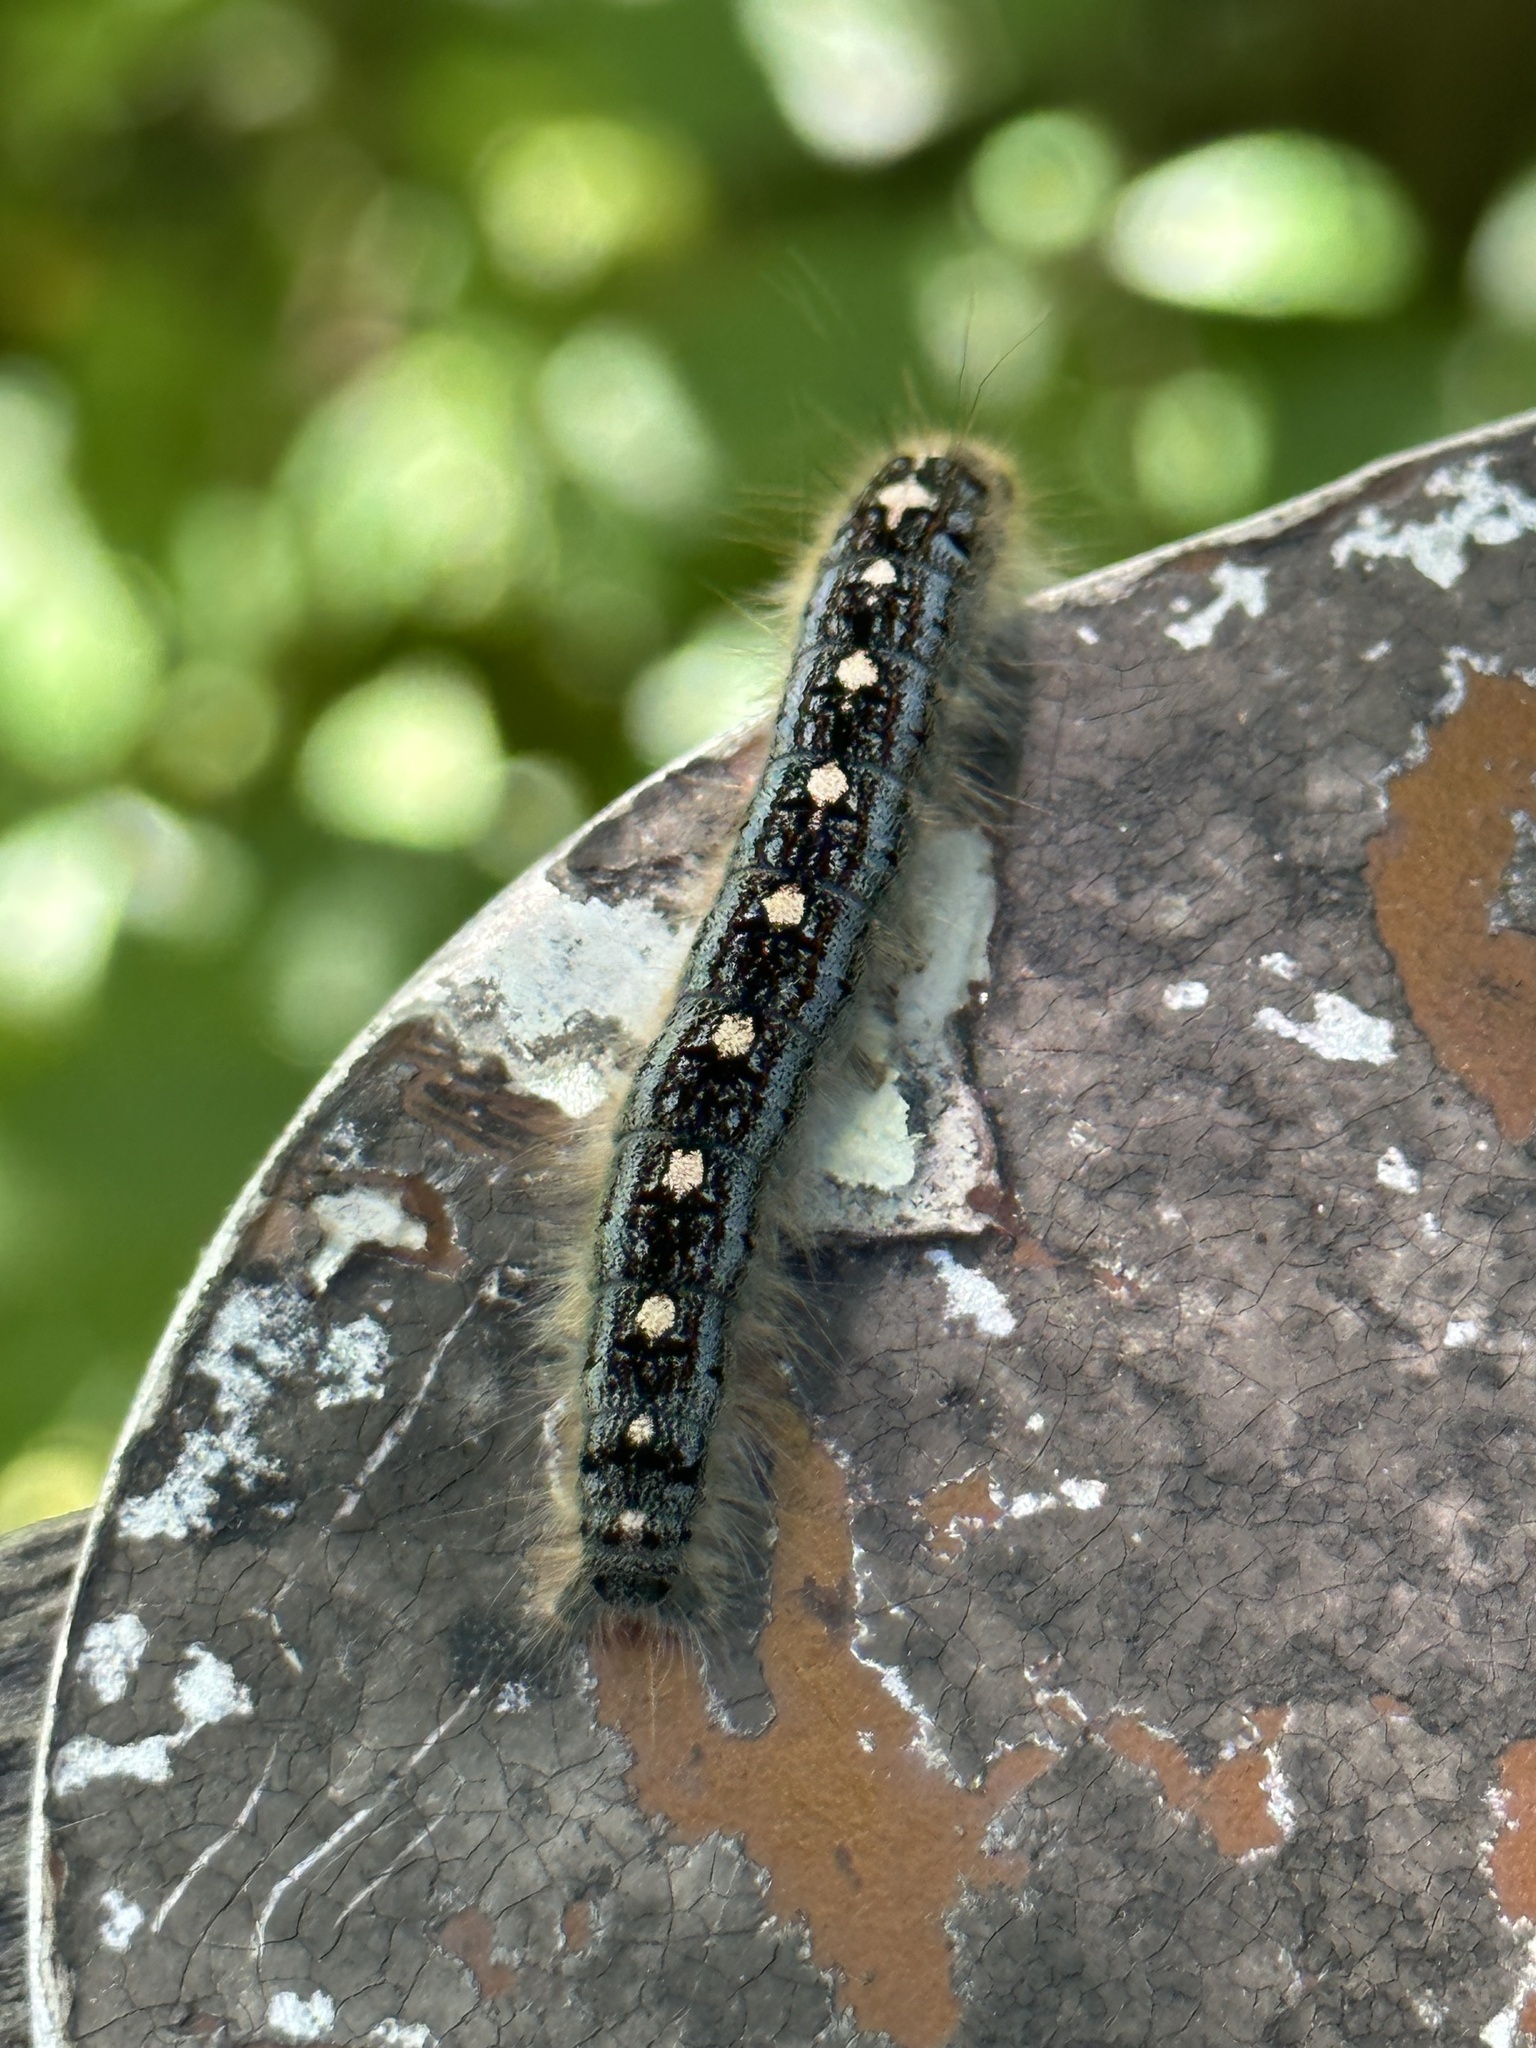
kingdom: Animalia
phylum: Arthropoda
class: Insecta
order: Lepidoptera
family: Lasiocampidae
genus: Malacosoma
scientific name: Malacosoma disstria
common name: Forest tent caterpillar
